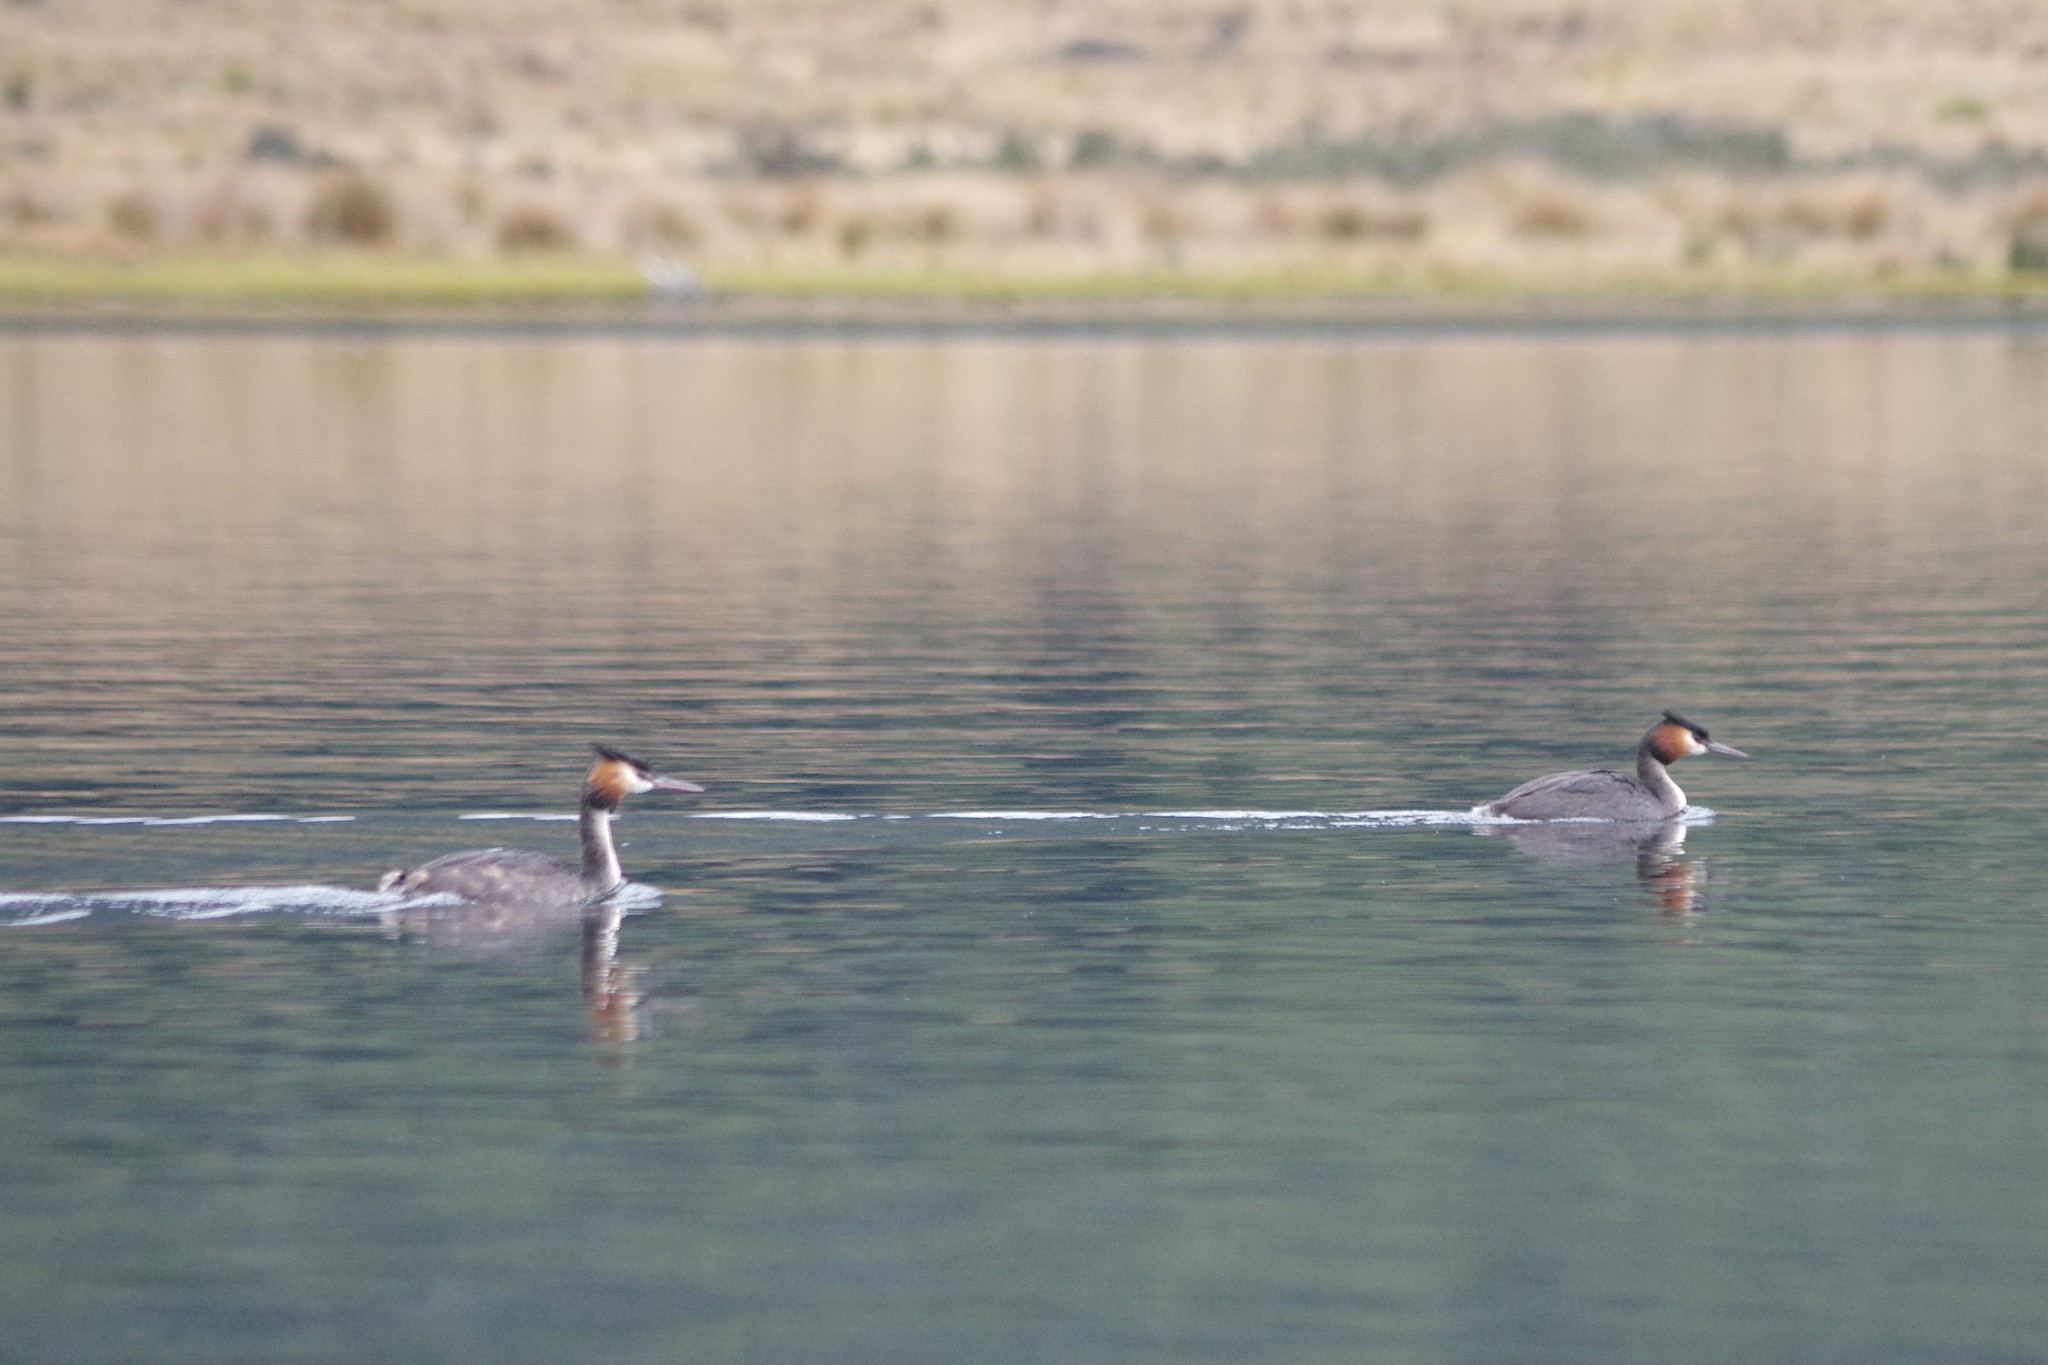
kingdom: Animalia
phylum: Chordata
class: Aves
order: Podicipediformes
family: Podicipedidae
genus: Podiceps
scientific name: Podiceps cristatus
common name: Great crested grebe
